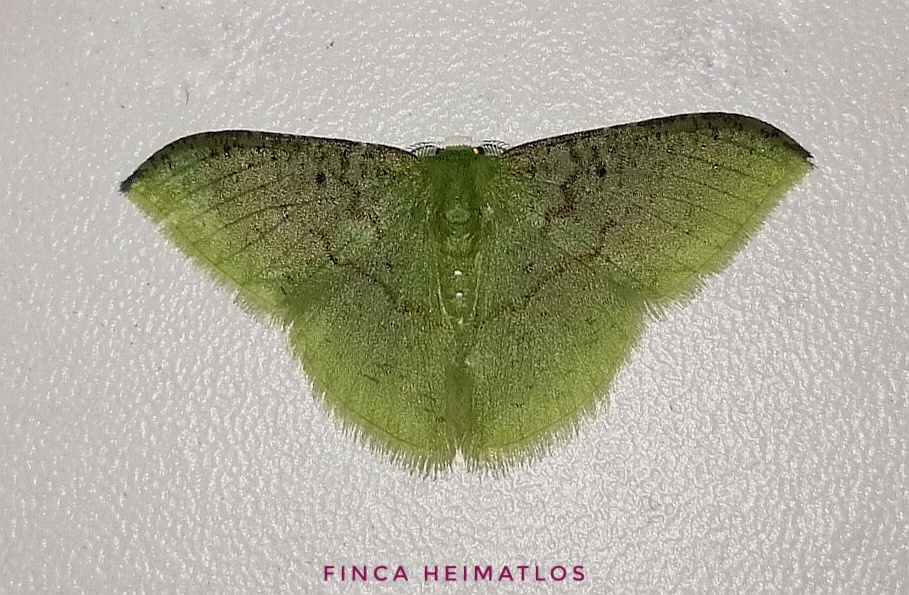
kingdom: Animalia
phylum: Arthropoda
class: Insecta
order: Lepidoptera
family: Geometridae
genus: Tachyphyle
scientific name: Tachyphyle undilineata
